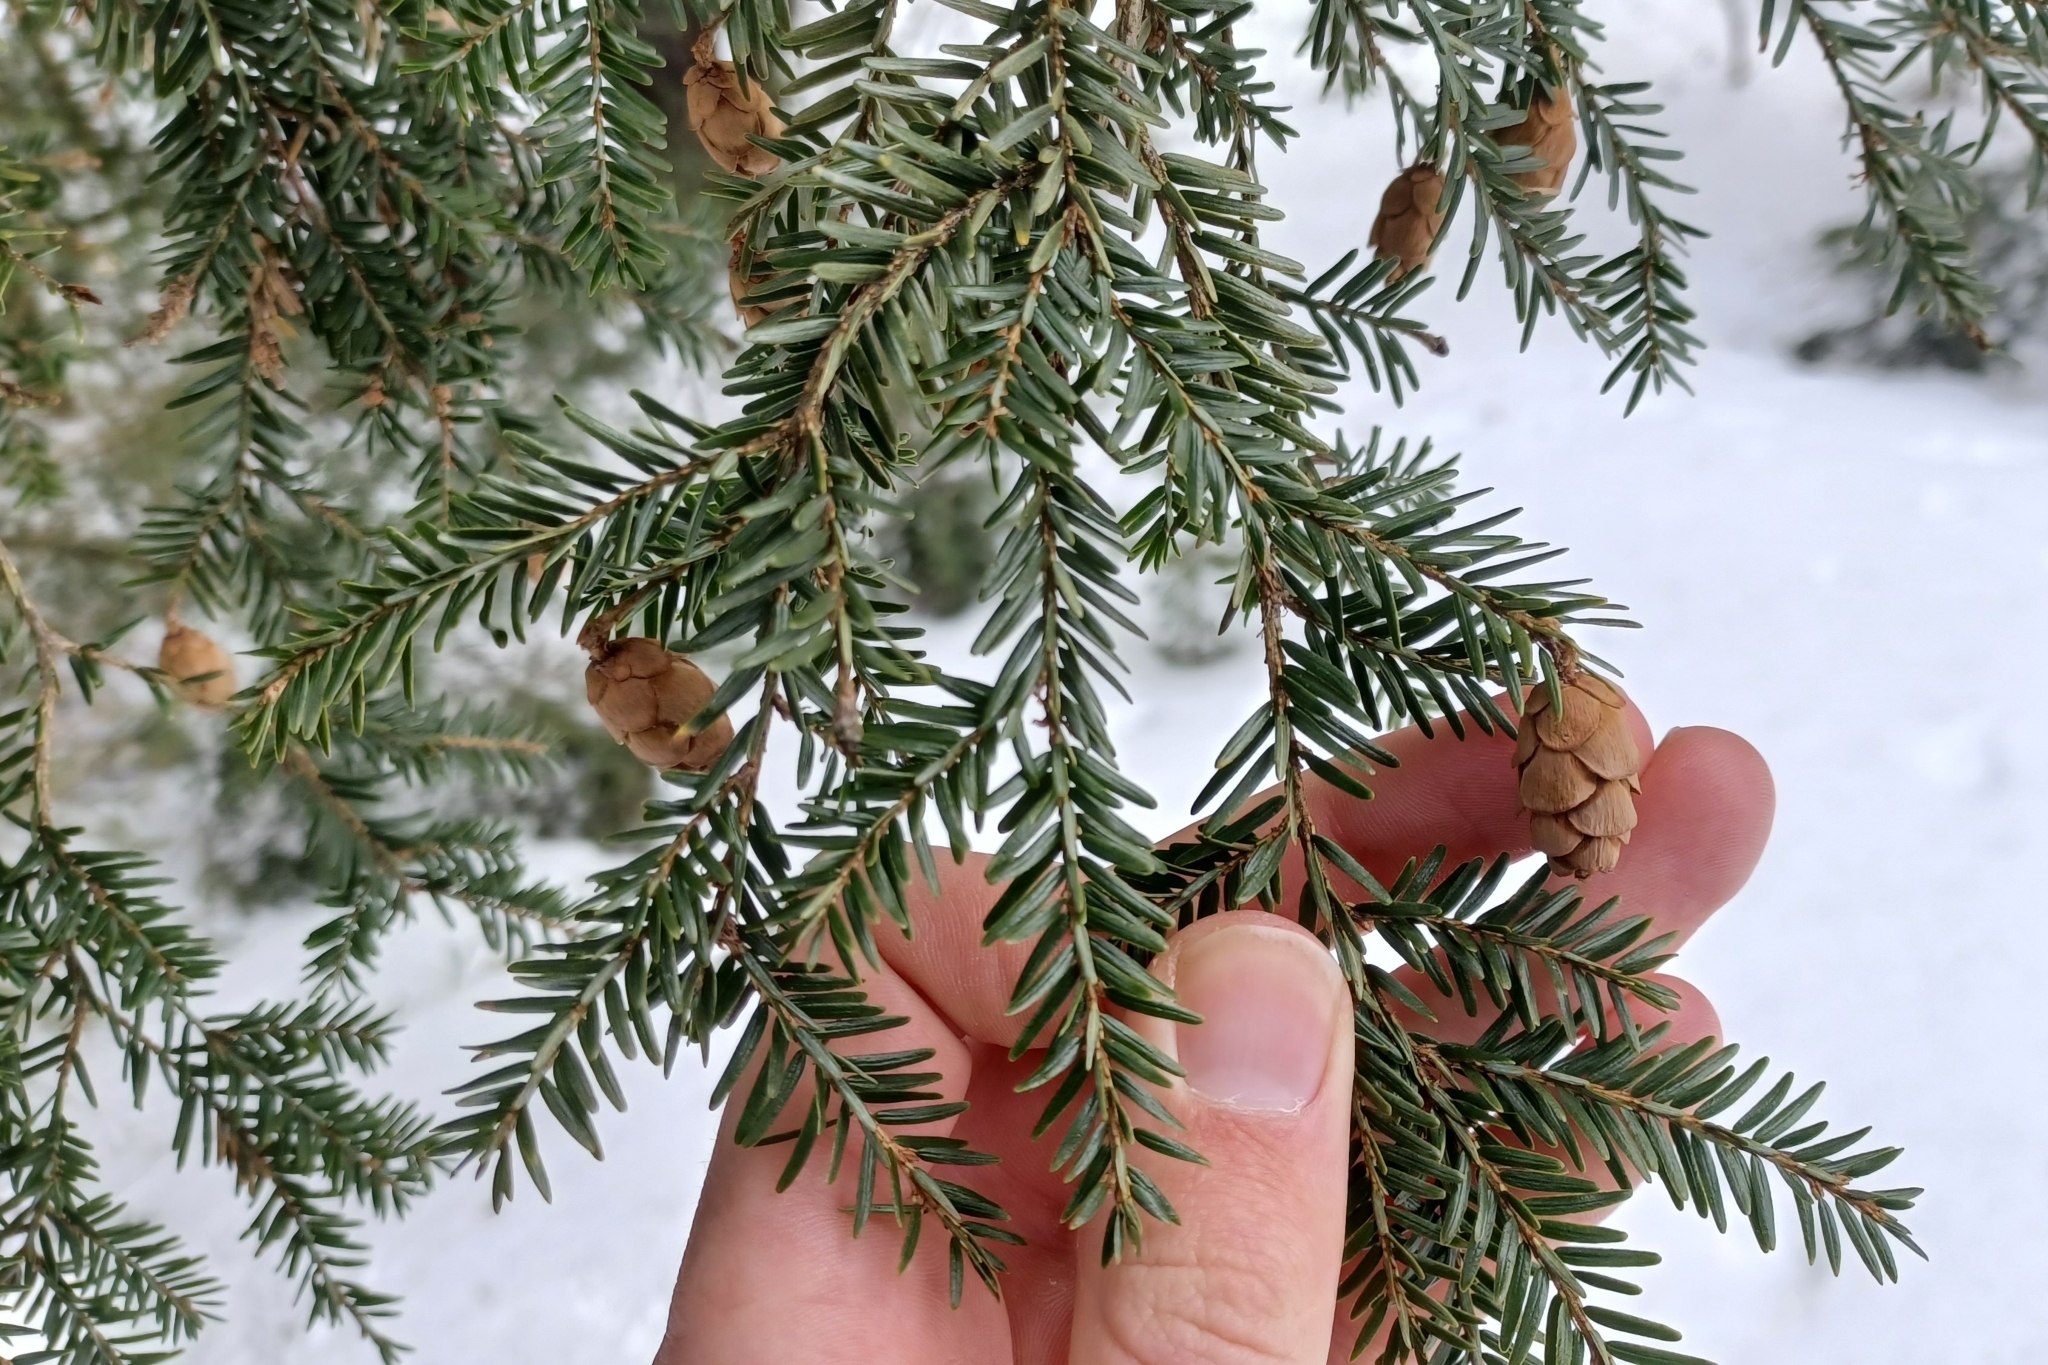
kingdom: Plantae
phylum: Tracheophyta
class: Pinopsida
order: Pinales
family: Pinaceae
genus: Tsuga
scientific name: Tsuga canadensis
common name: Eastern hemlock
